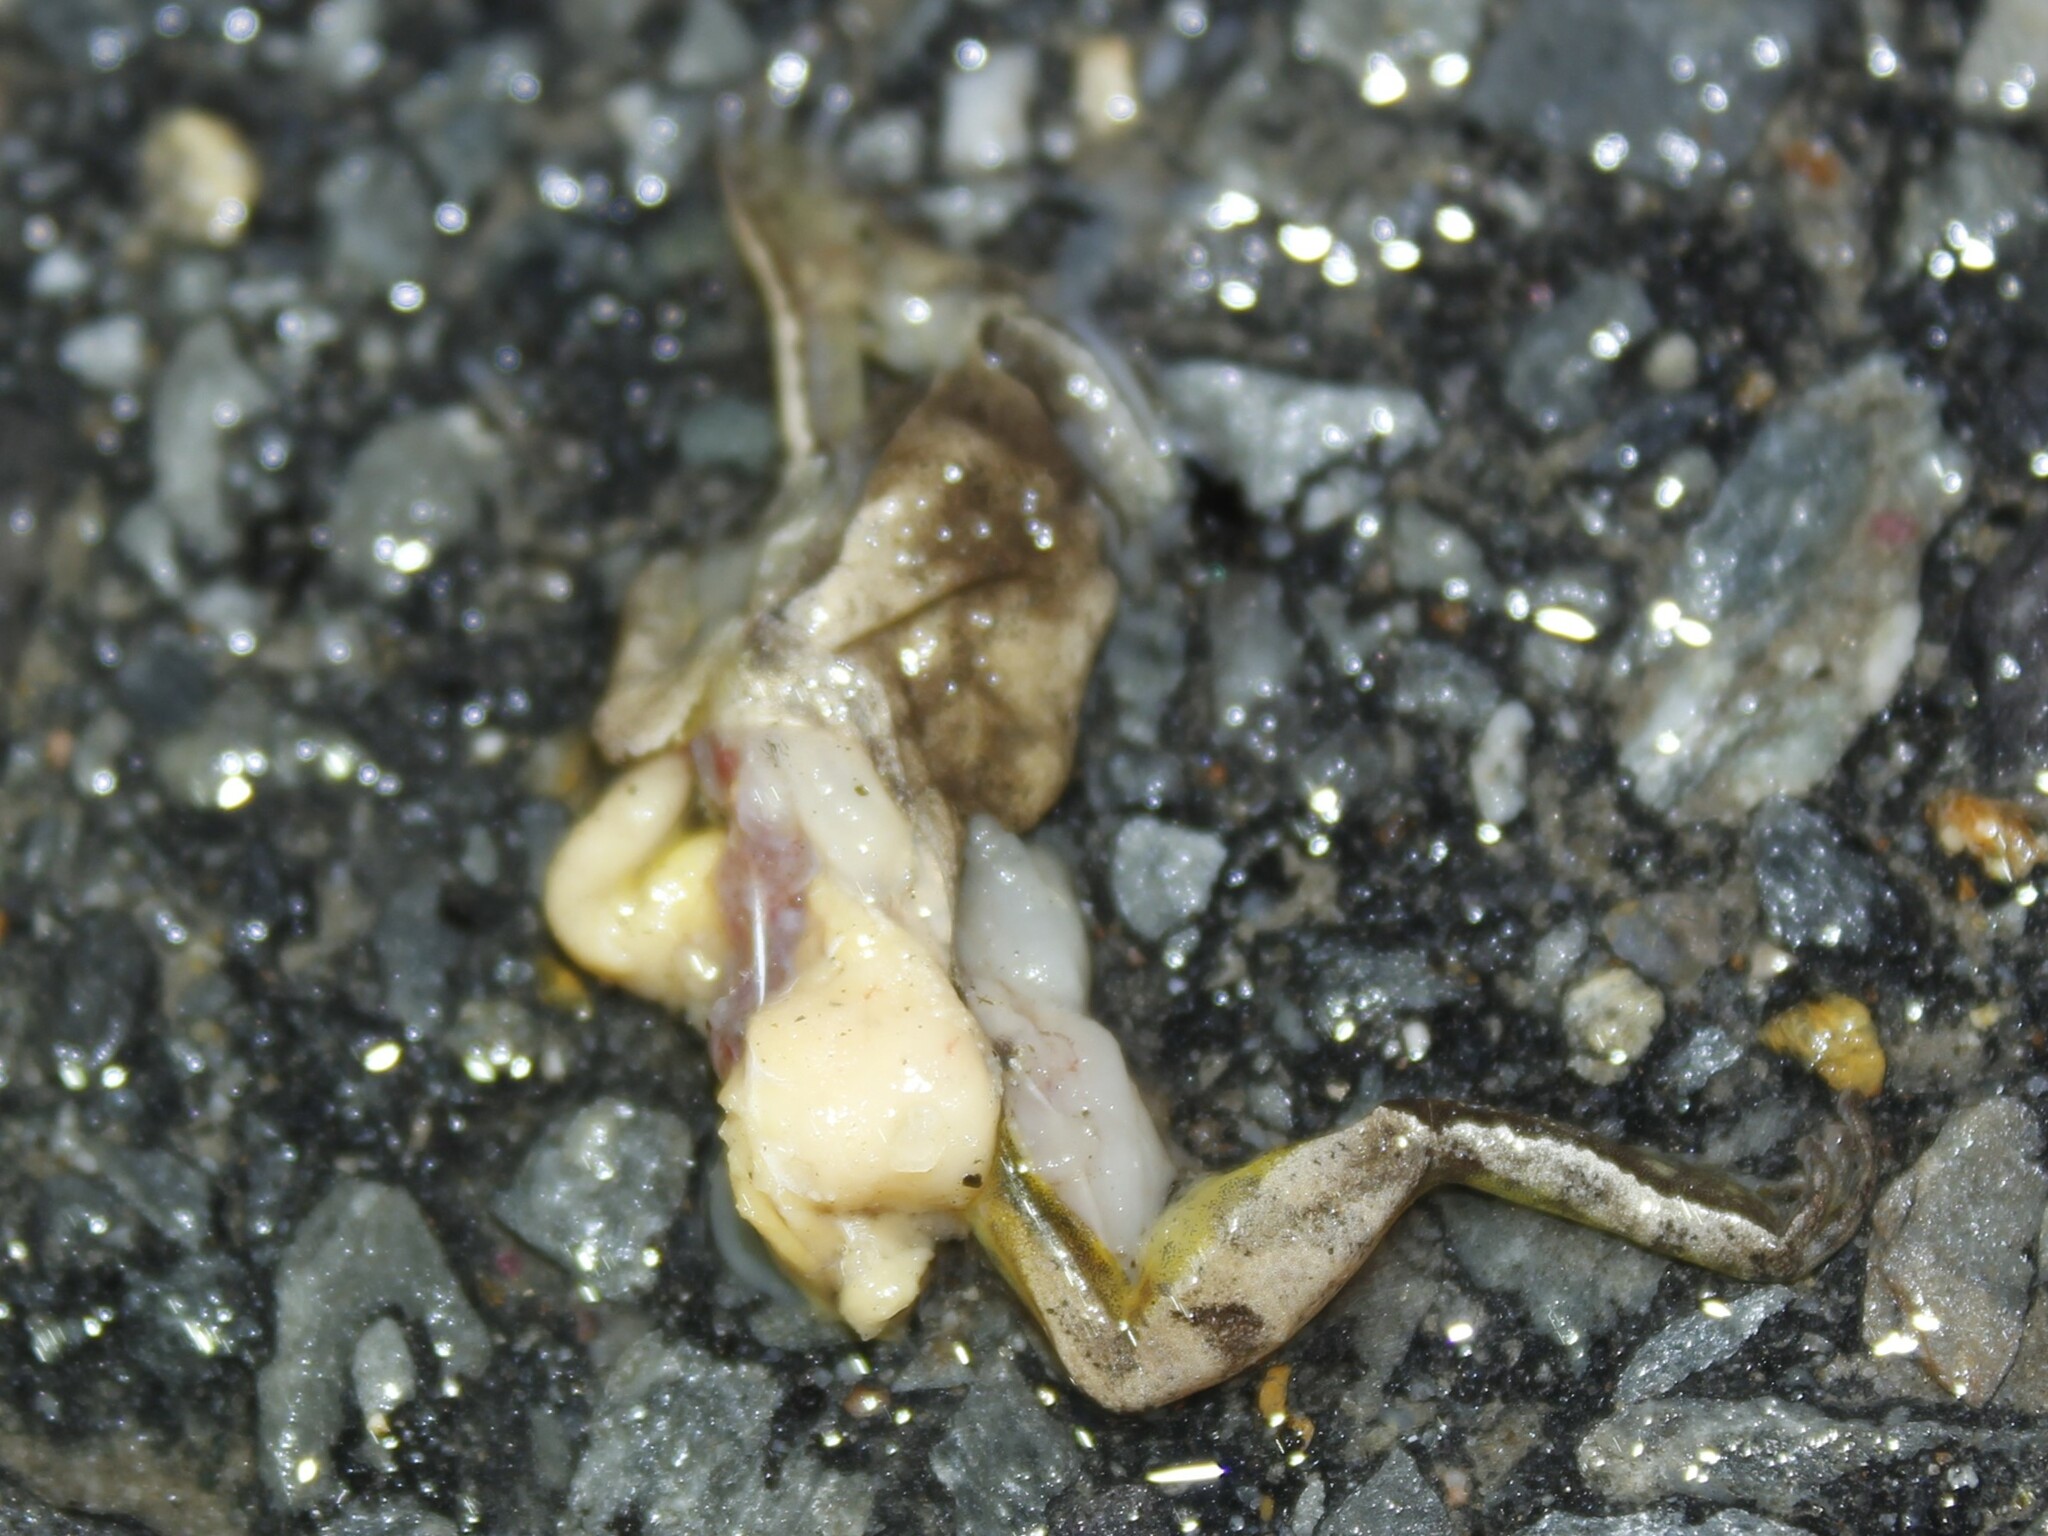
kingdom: Animalia
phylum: Chordata
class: Amphibia
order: Anura
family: Hylidae
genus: Pseudacris
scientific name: Pseudacris crucifer
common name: Spring peeper
